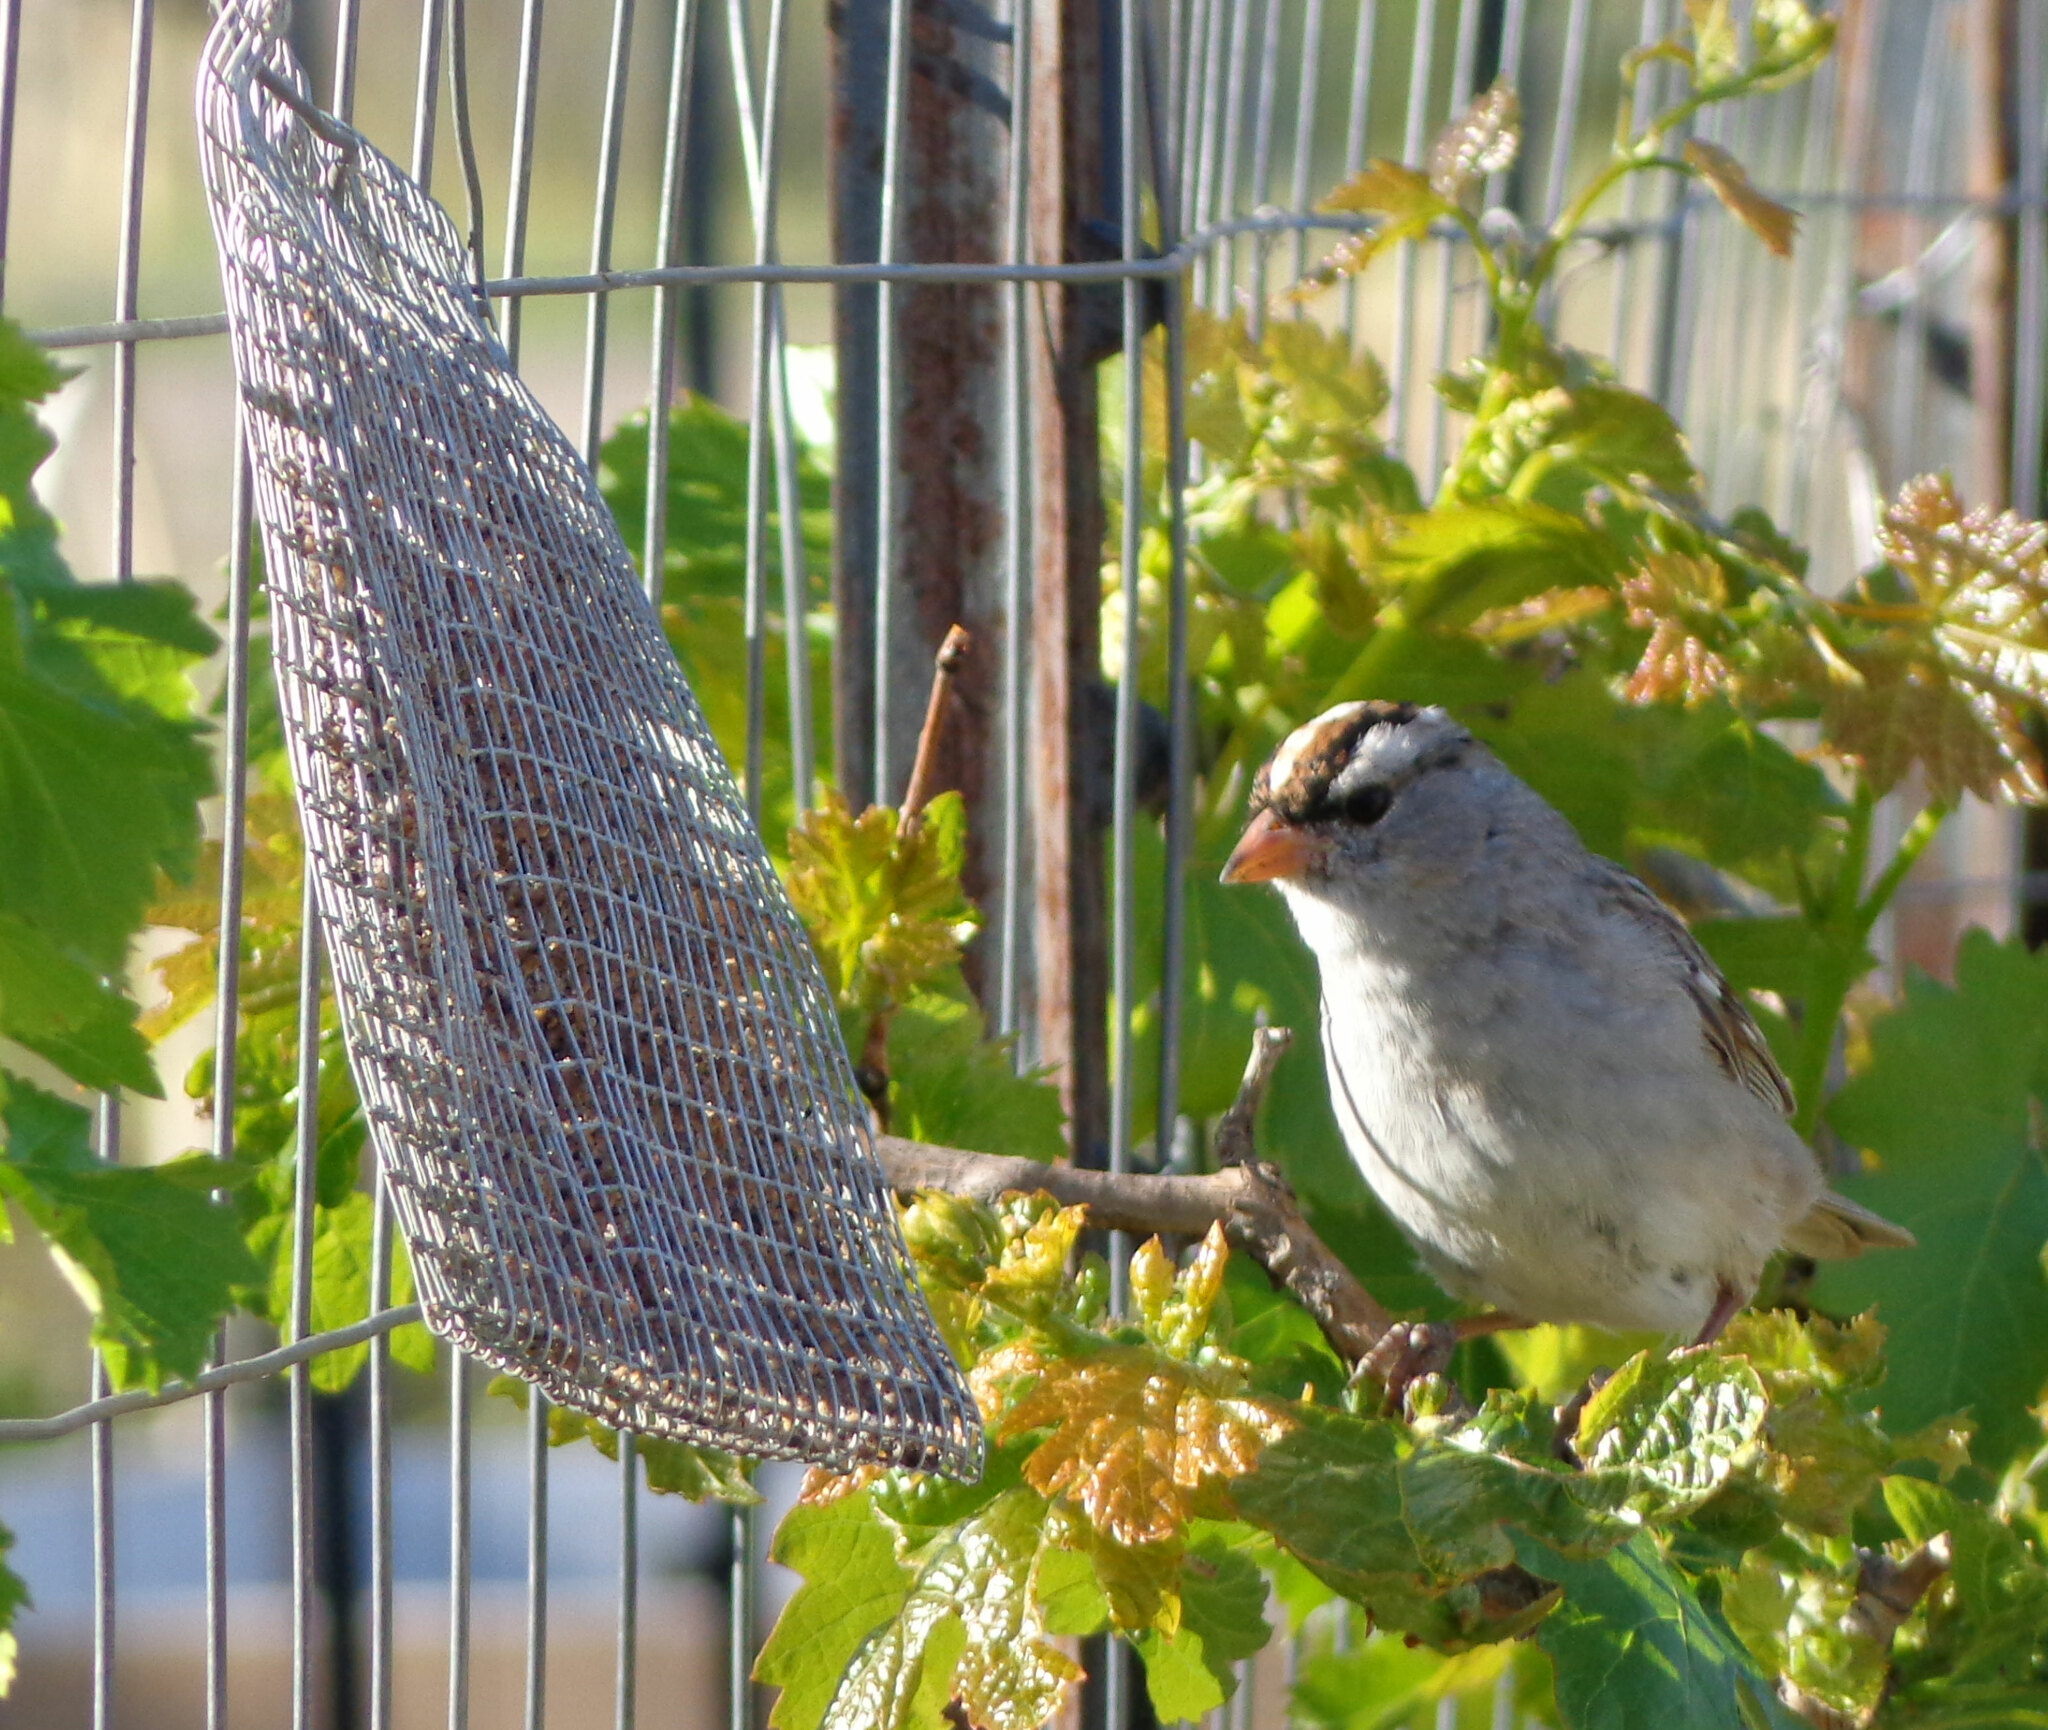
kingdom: Animalia
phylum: Chordata
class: Aves
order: Passeriformes
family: Passerellidae
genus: Zonotrichia
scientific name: Zonotrichia leucophrys
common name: White-crowned sparrow
